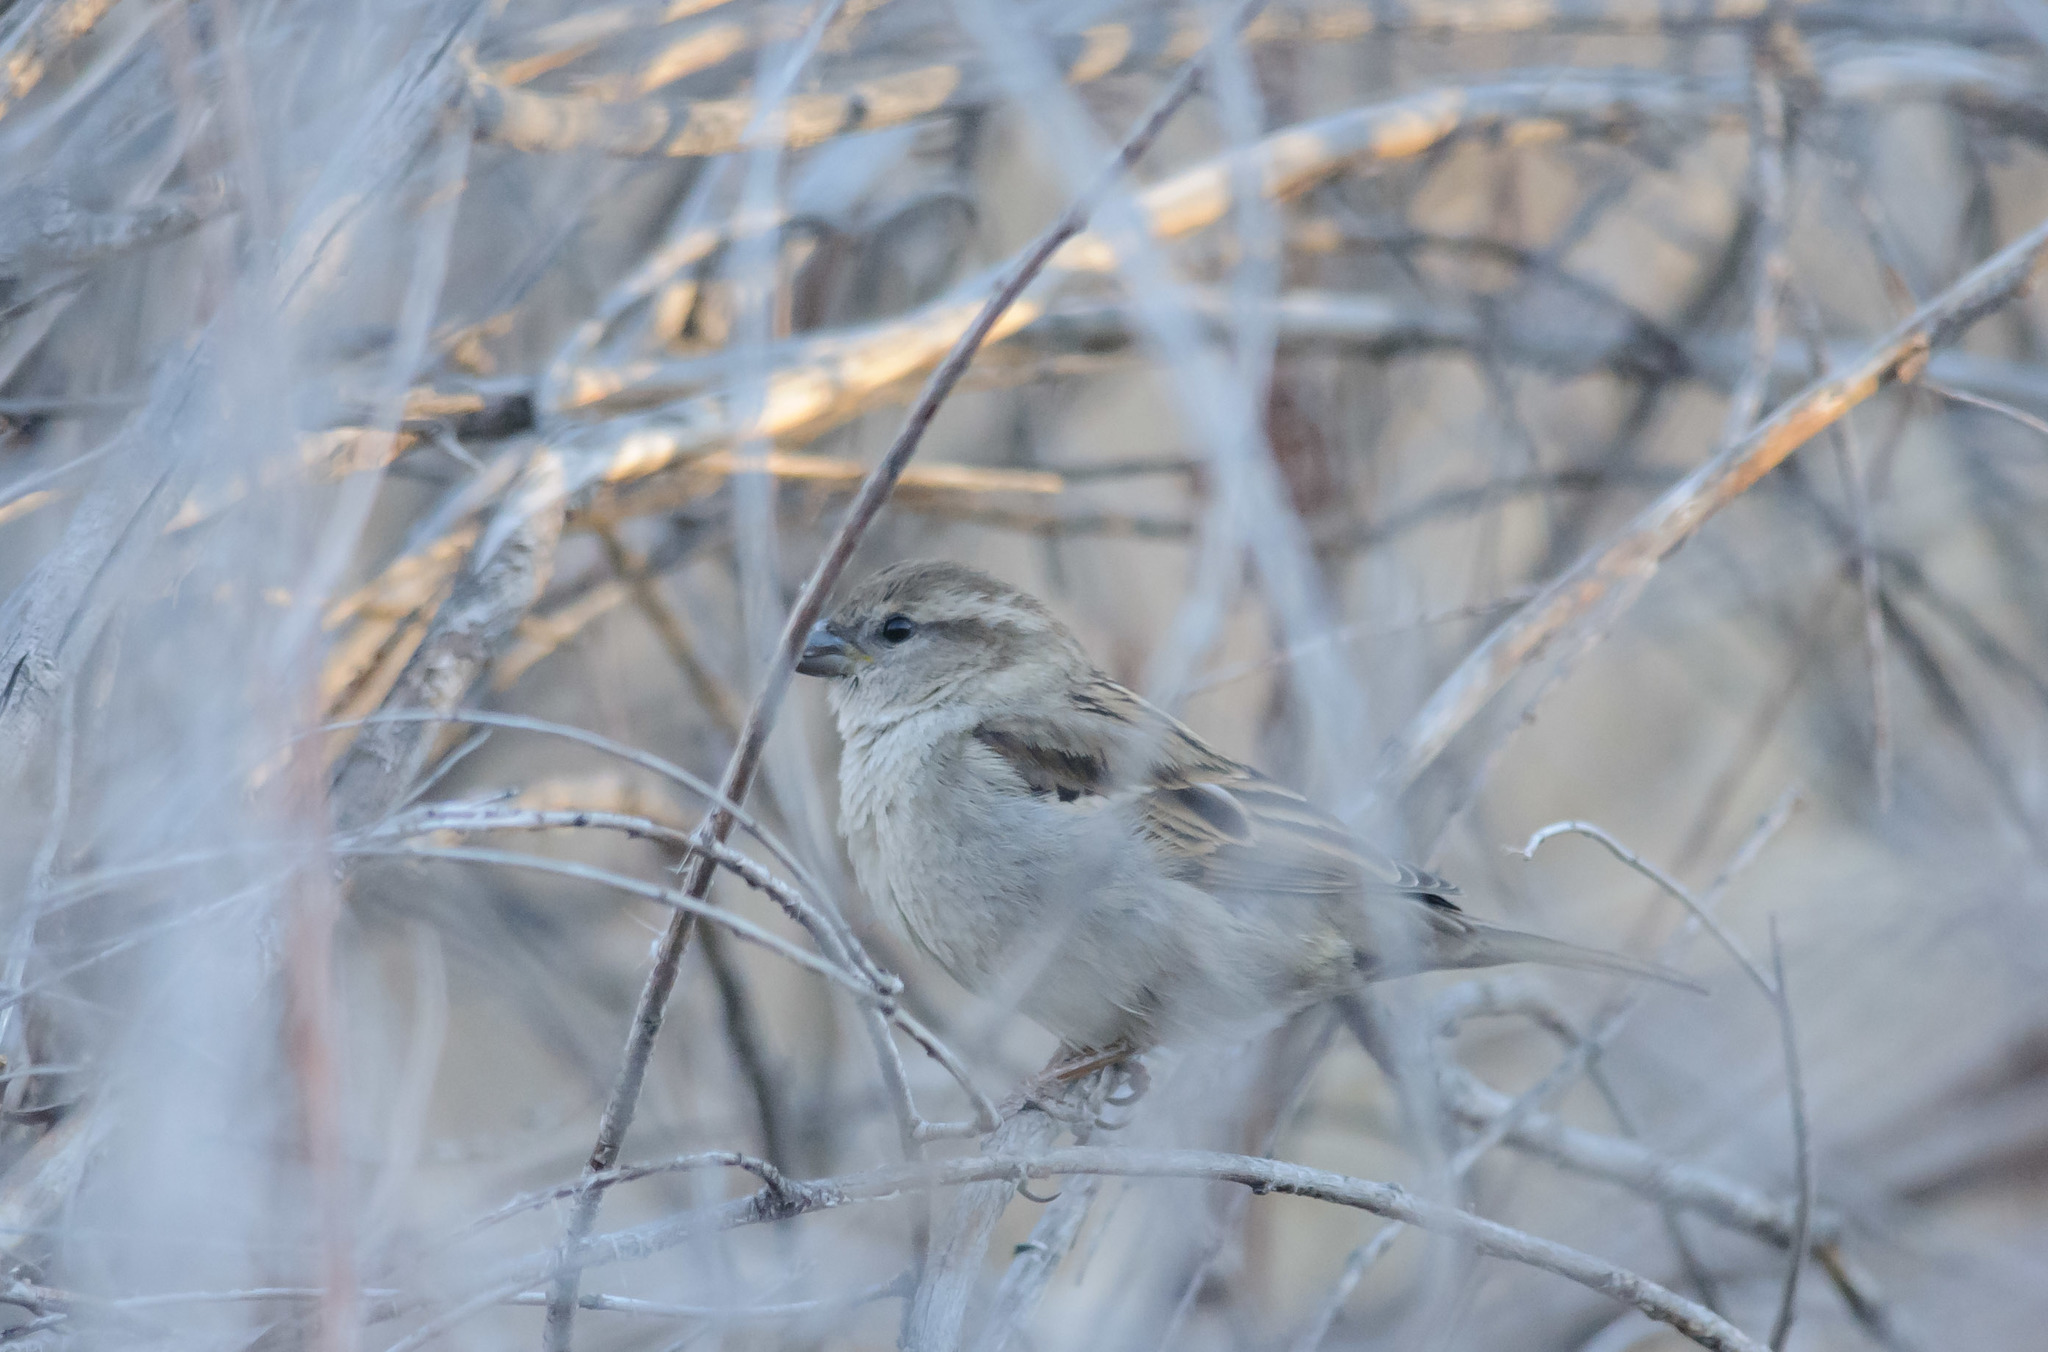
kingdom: Animalia
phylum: Chordata
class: Aves
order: Passeriformes
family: Passeridae
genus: Passer
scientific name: Passer domesticus
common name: House sparrow
